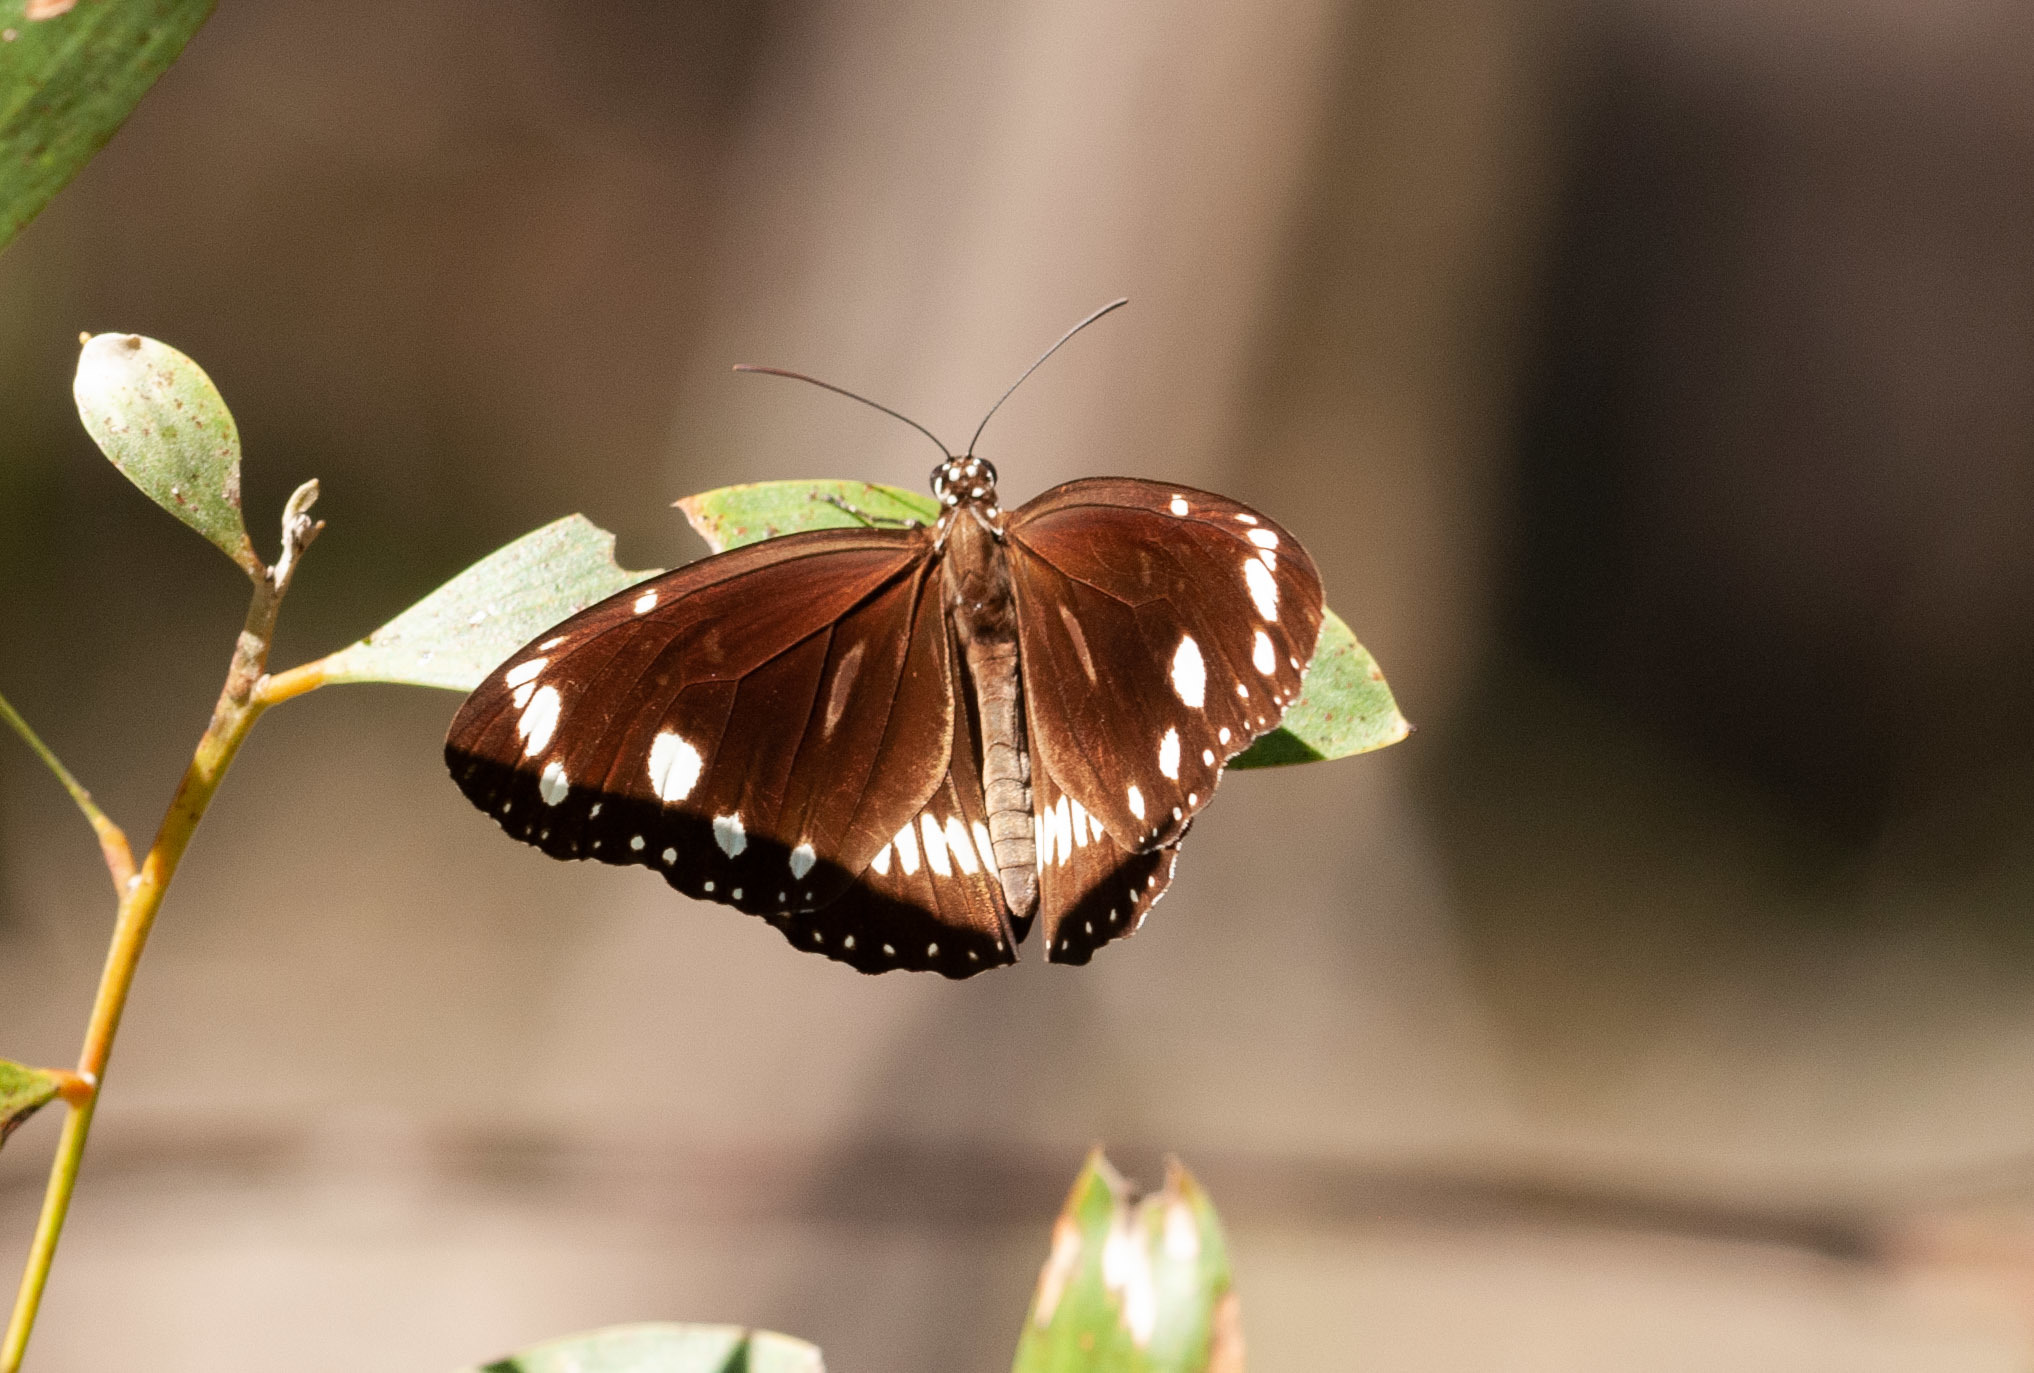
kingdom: Animalia
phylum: Arthropoda
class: Insecta
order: Lepidoptera
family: Nymphalidae
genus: Euploea
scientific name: Euploea core
